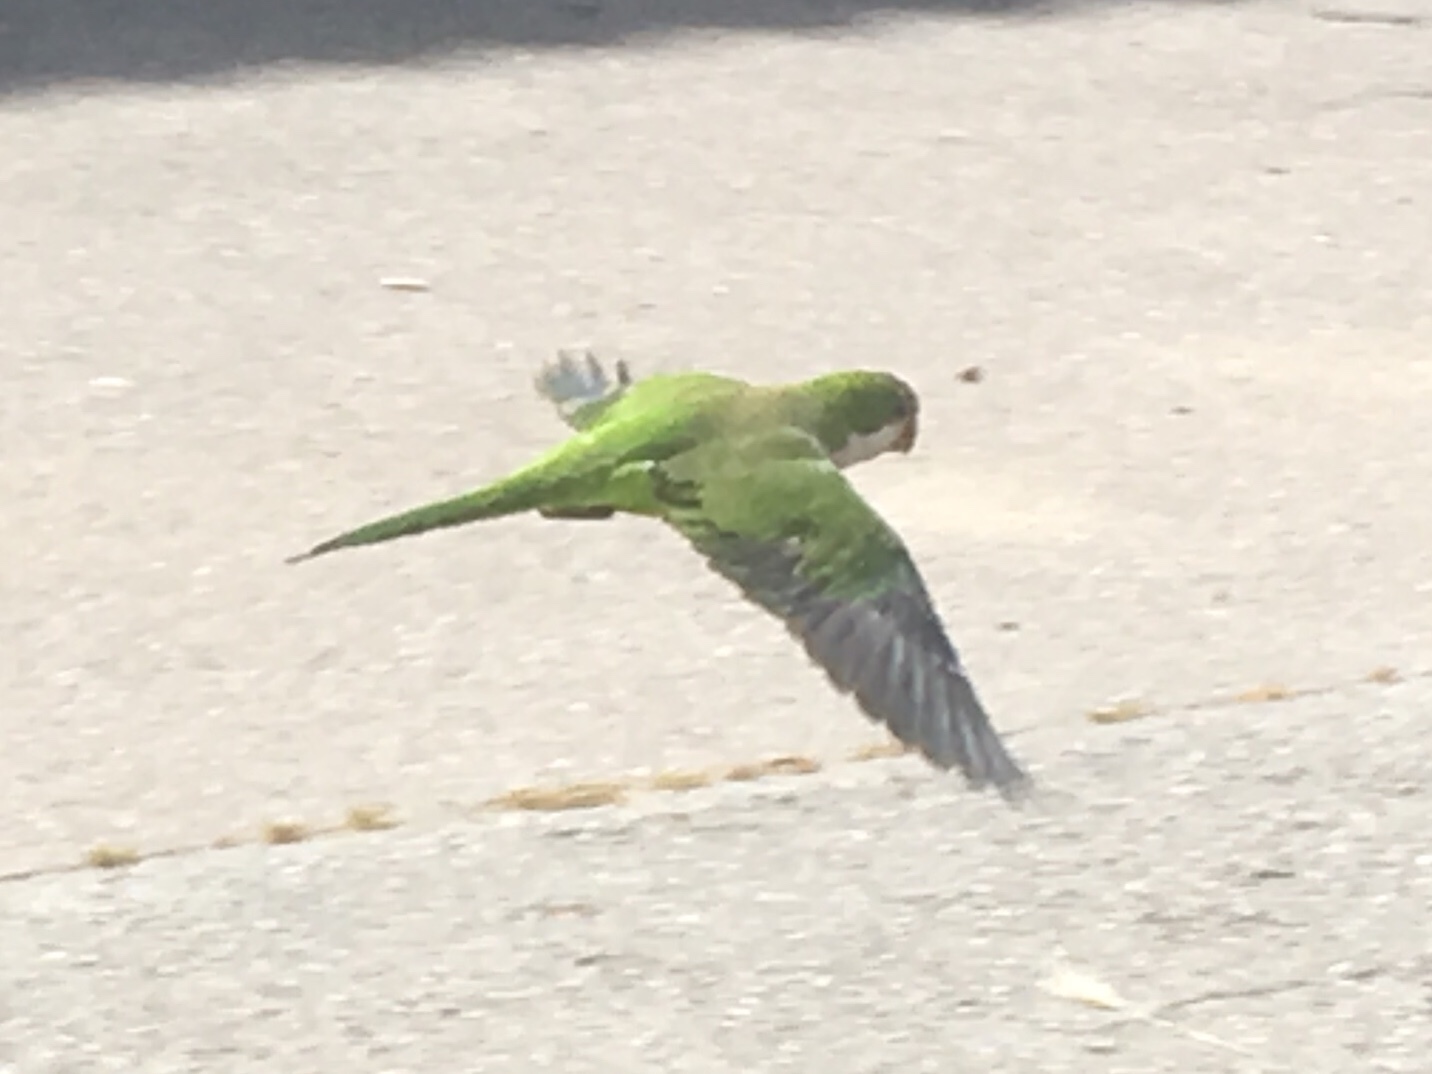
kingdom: Animalia
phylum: Chordata
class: Aves
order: Psittaciformes
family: Psittacidae
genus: Myiopsitta
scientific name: Myiopsitta monachus
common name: Monk parakeet
